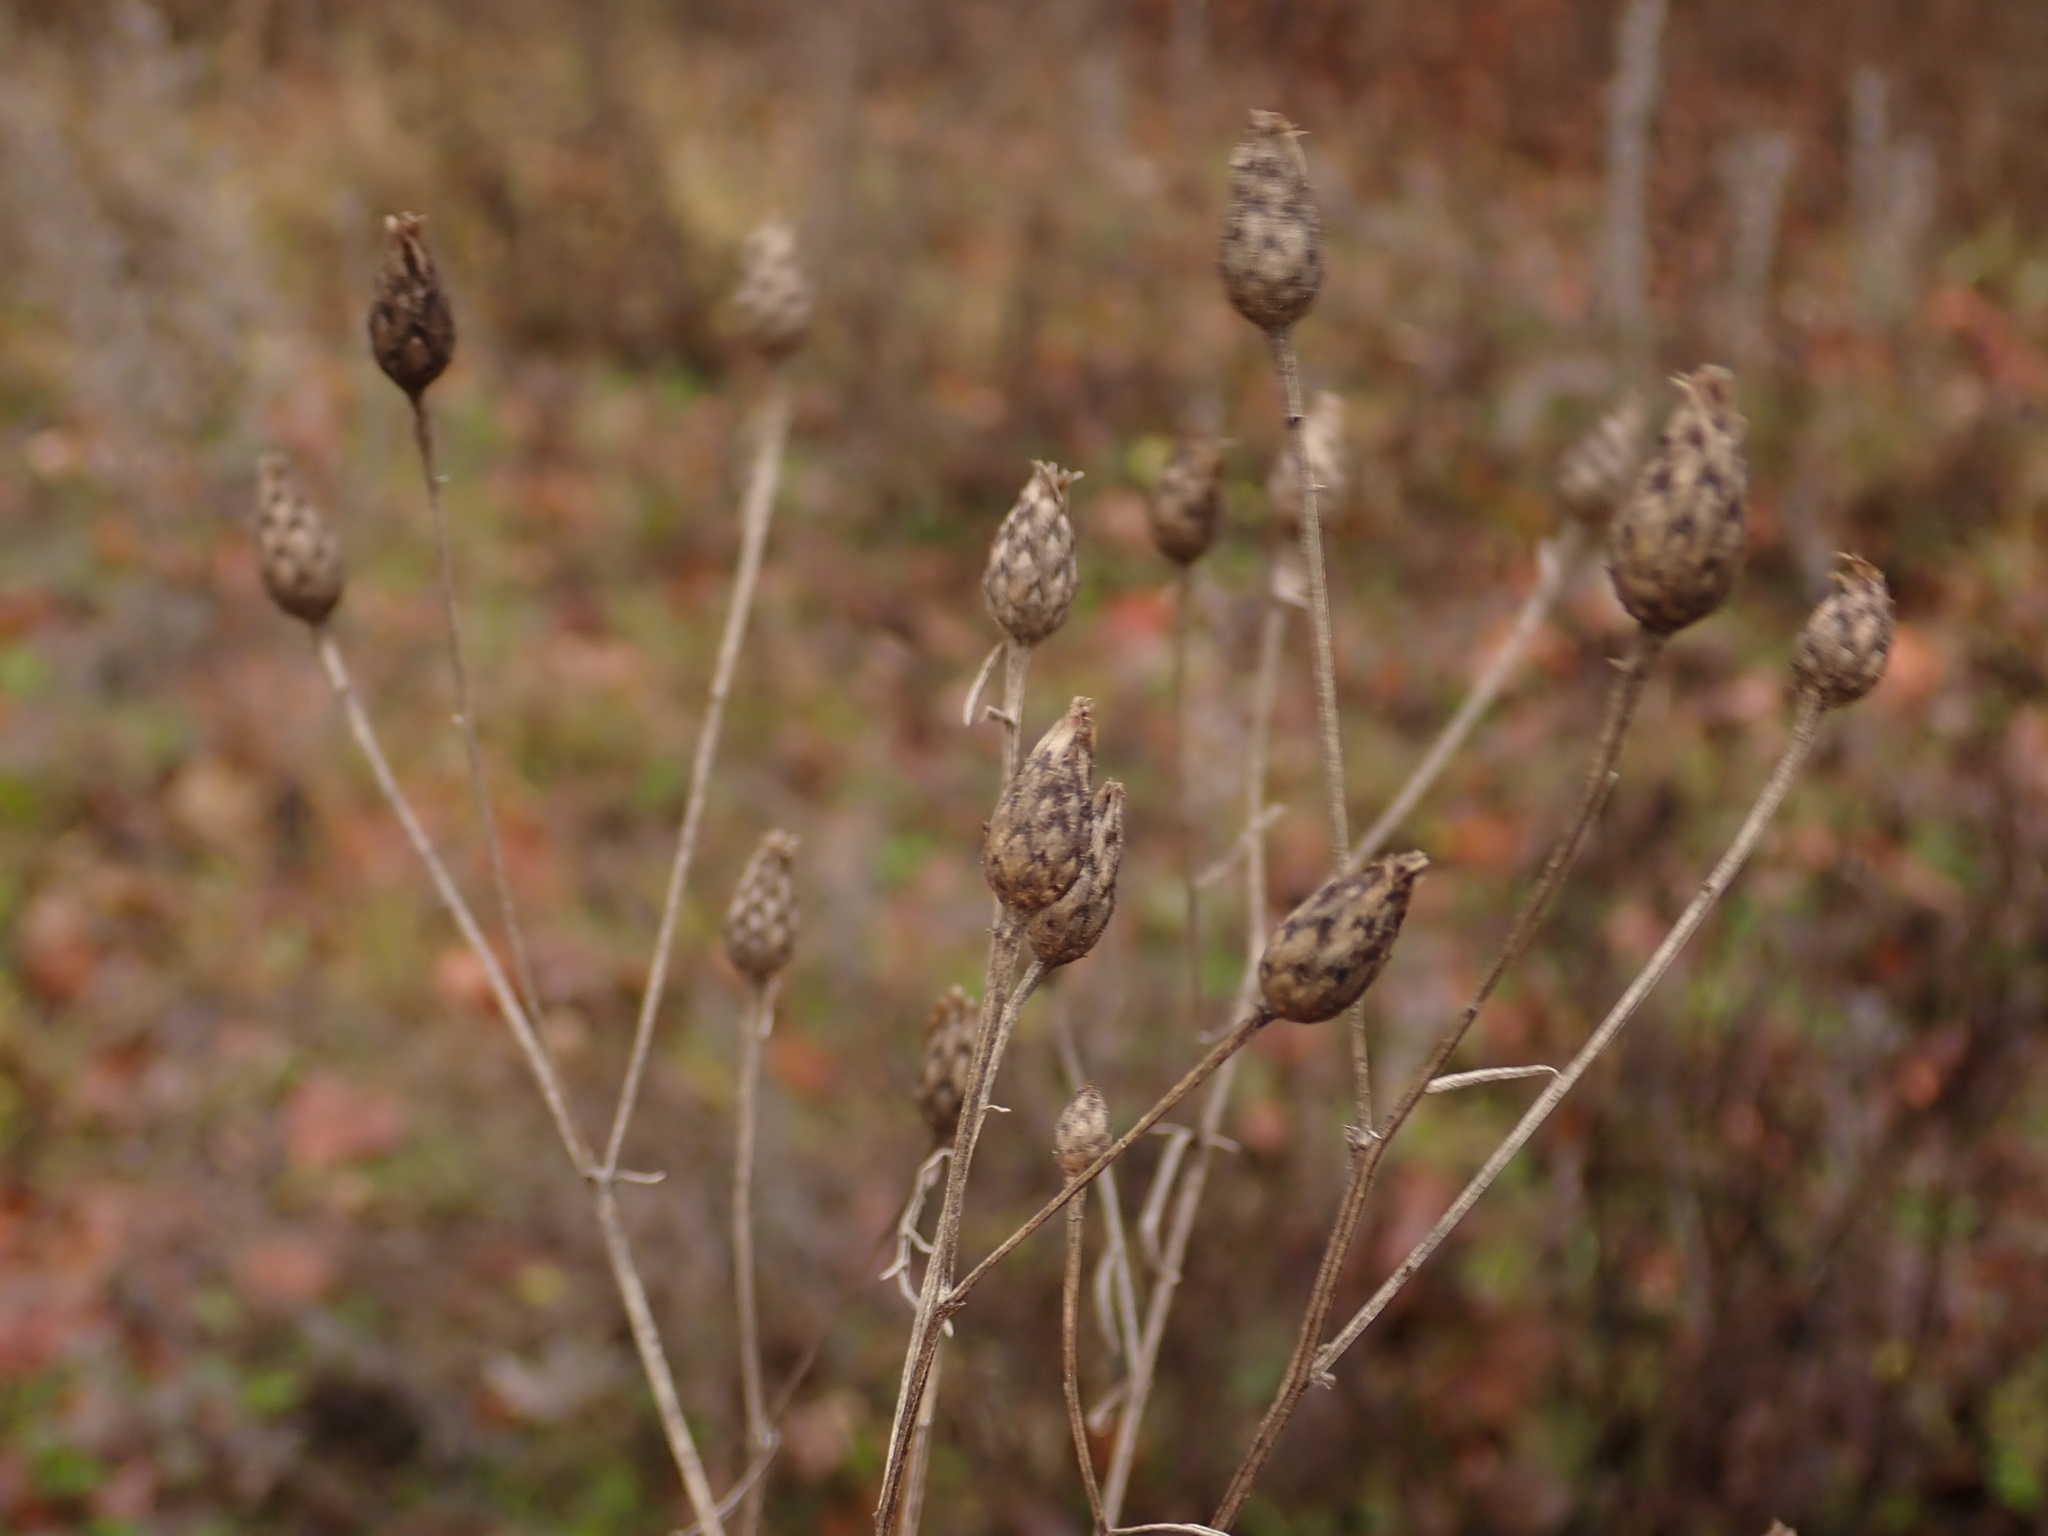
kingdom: Plantae
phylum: Tracheophyta
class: Magnoliopsida
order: Asterales
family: Asteraceae
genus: Centaurea
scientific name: Centaurea stoebe
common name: Spotted knapweed
